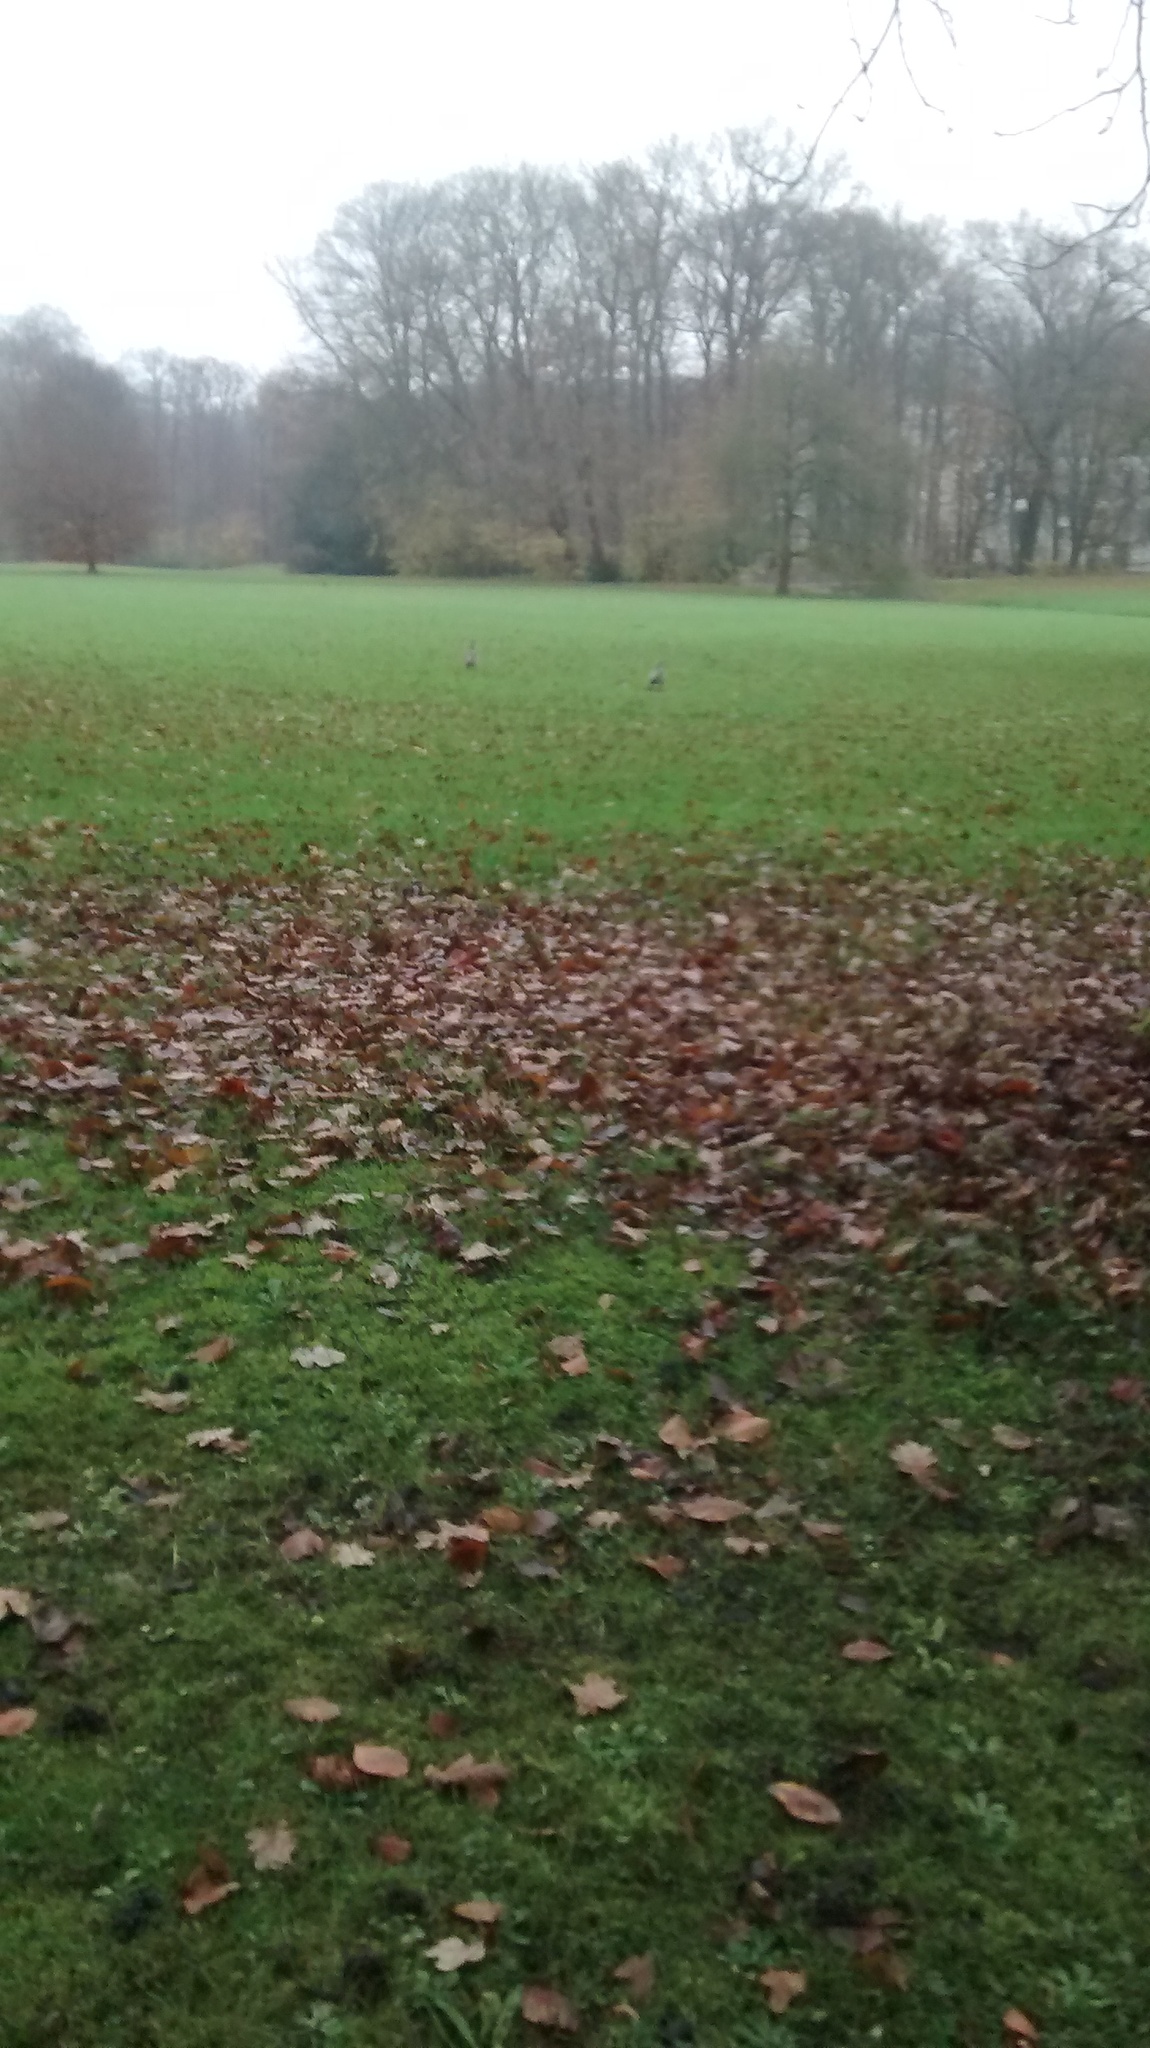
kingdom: Animalia
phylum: Chordata
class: Aves
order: Anseriformes
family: Anatidae
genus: Alopochen
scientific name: Alopochen aegyptiaca
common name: Egyptian goose
